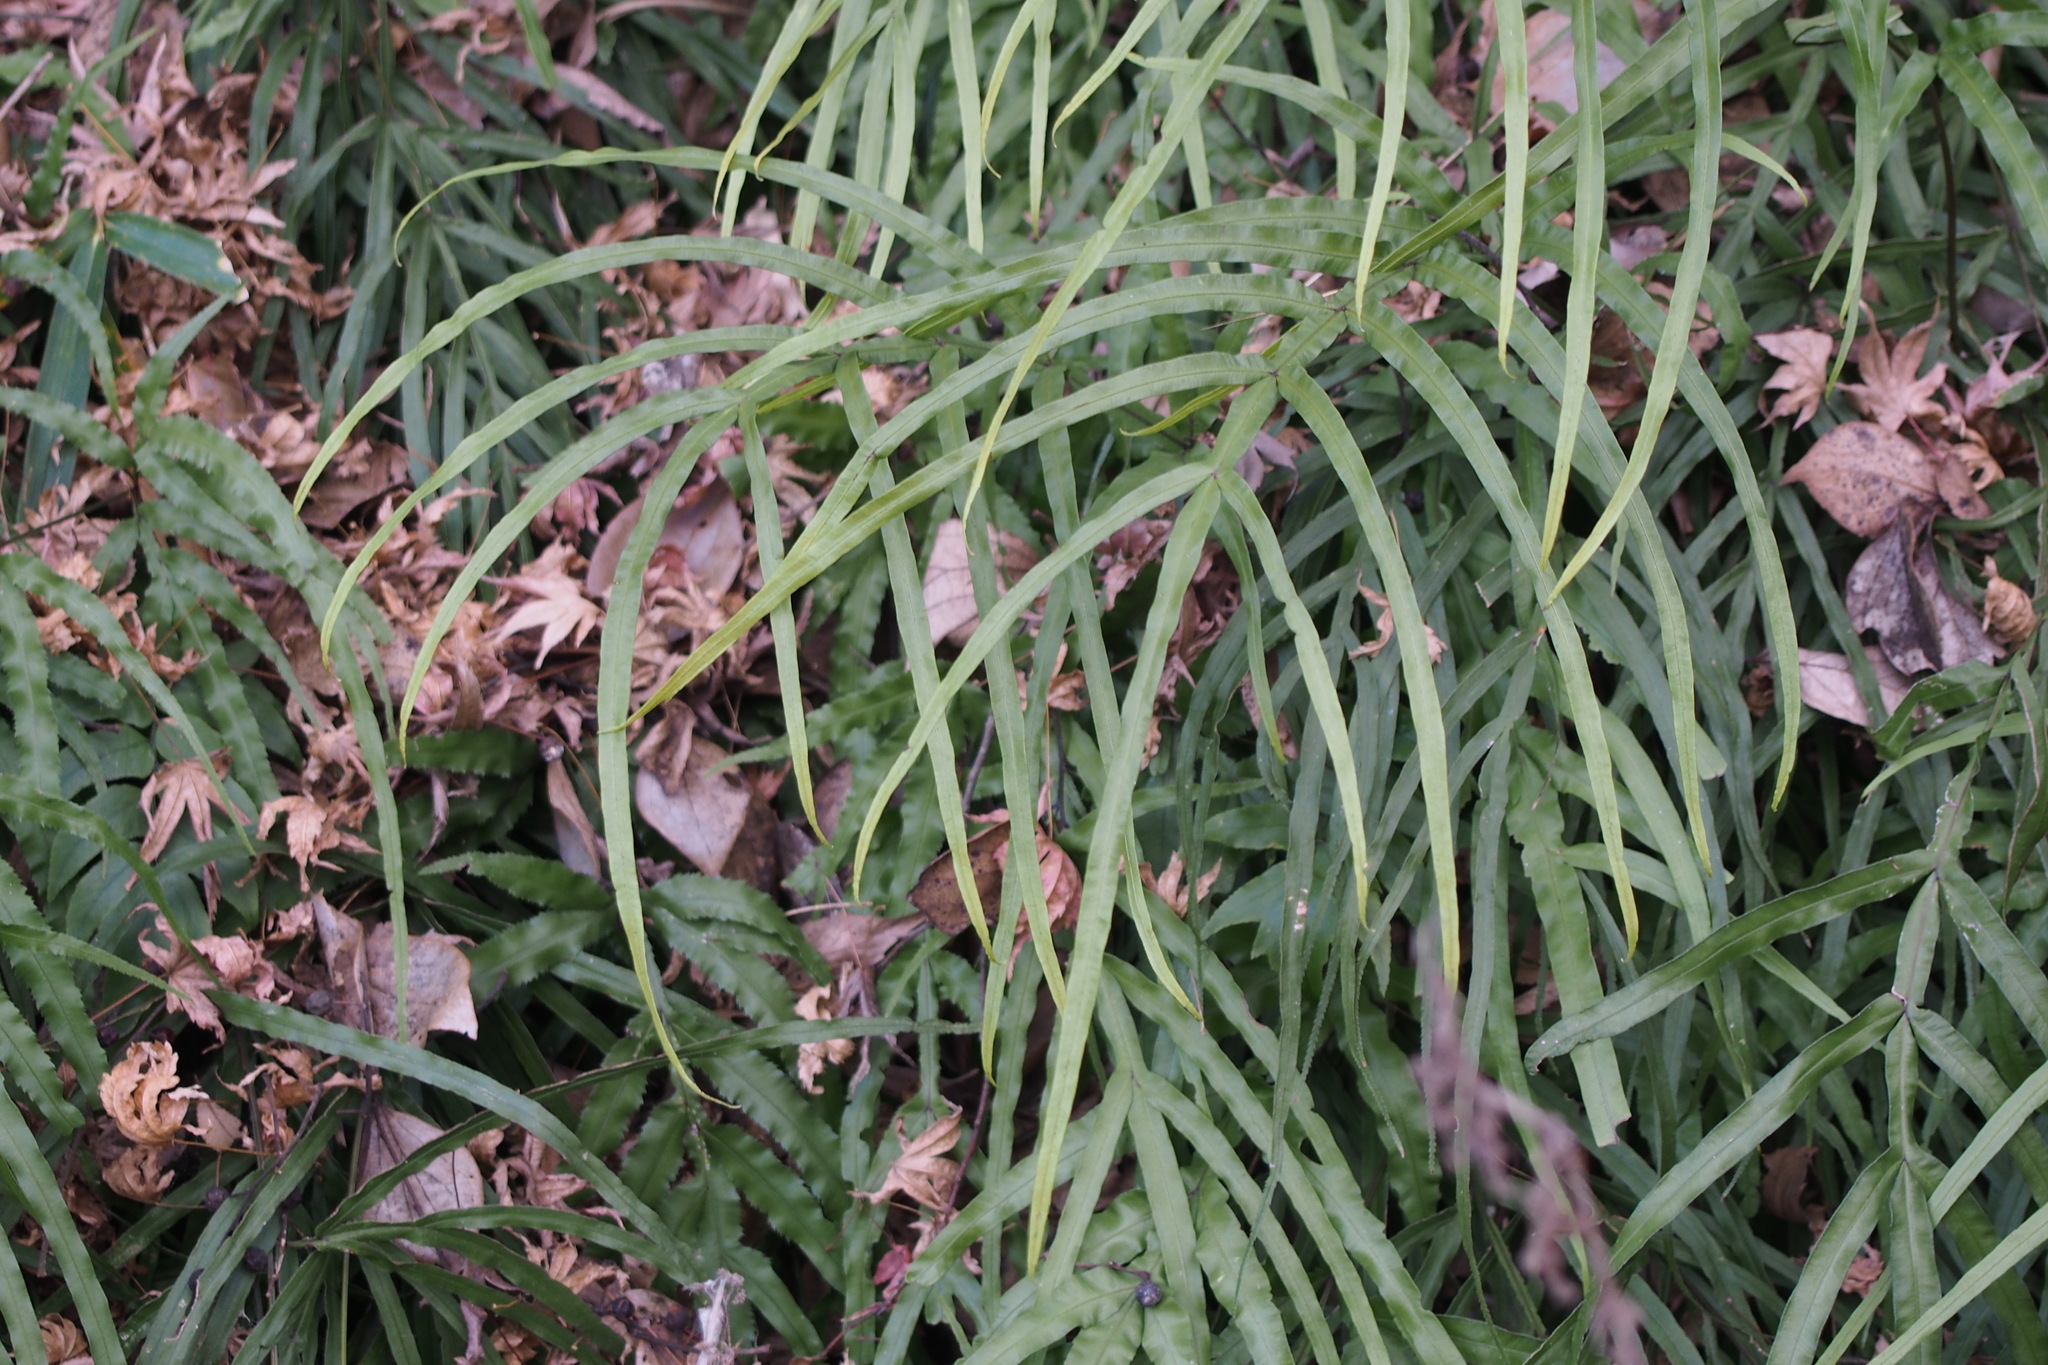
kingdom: Plantae
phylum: Tracheophyta
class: Polypodiopsida
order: Polypodiales
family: Pteridaceae
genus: Pteris
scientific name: Pteris multifida
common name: Spider brake
